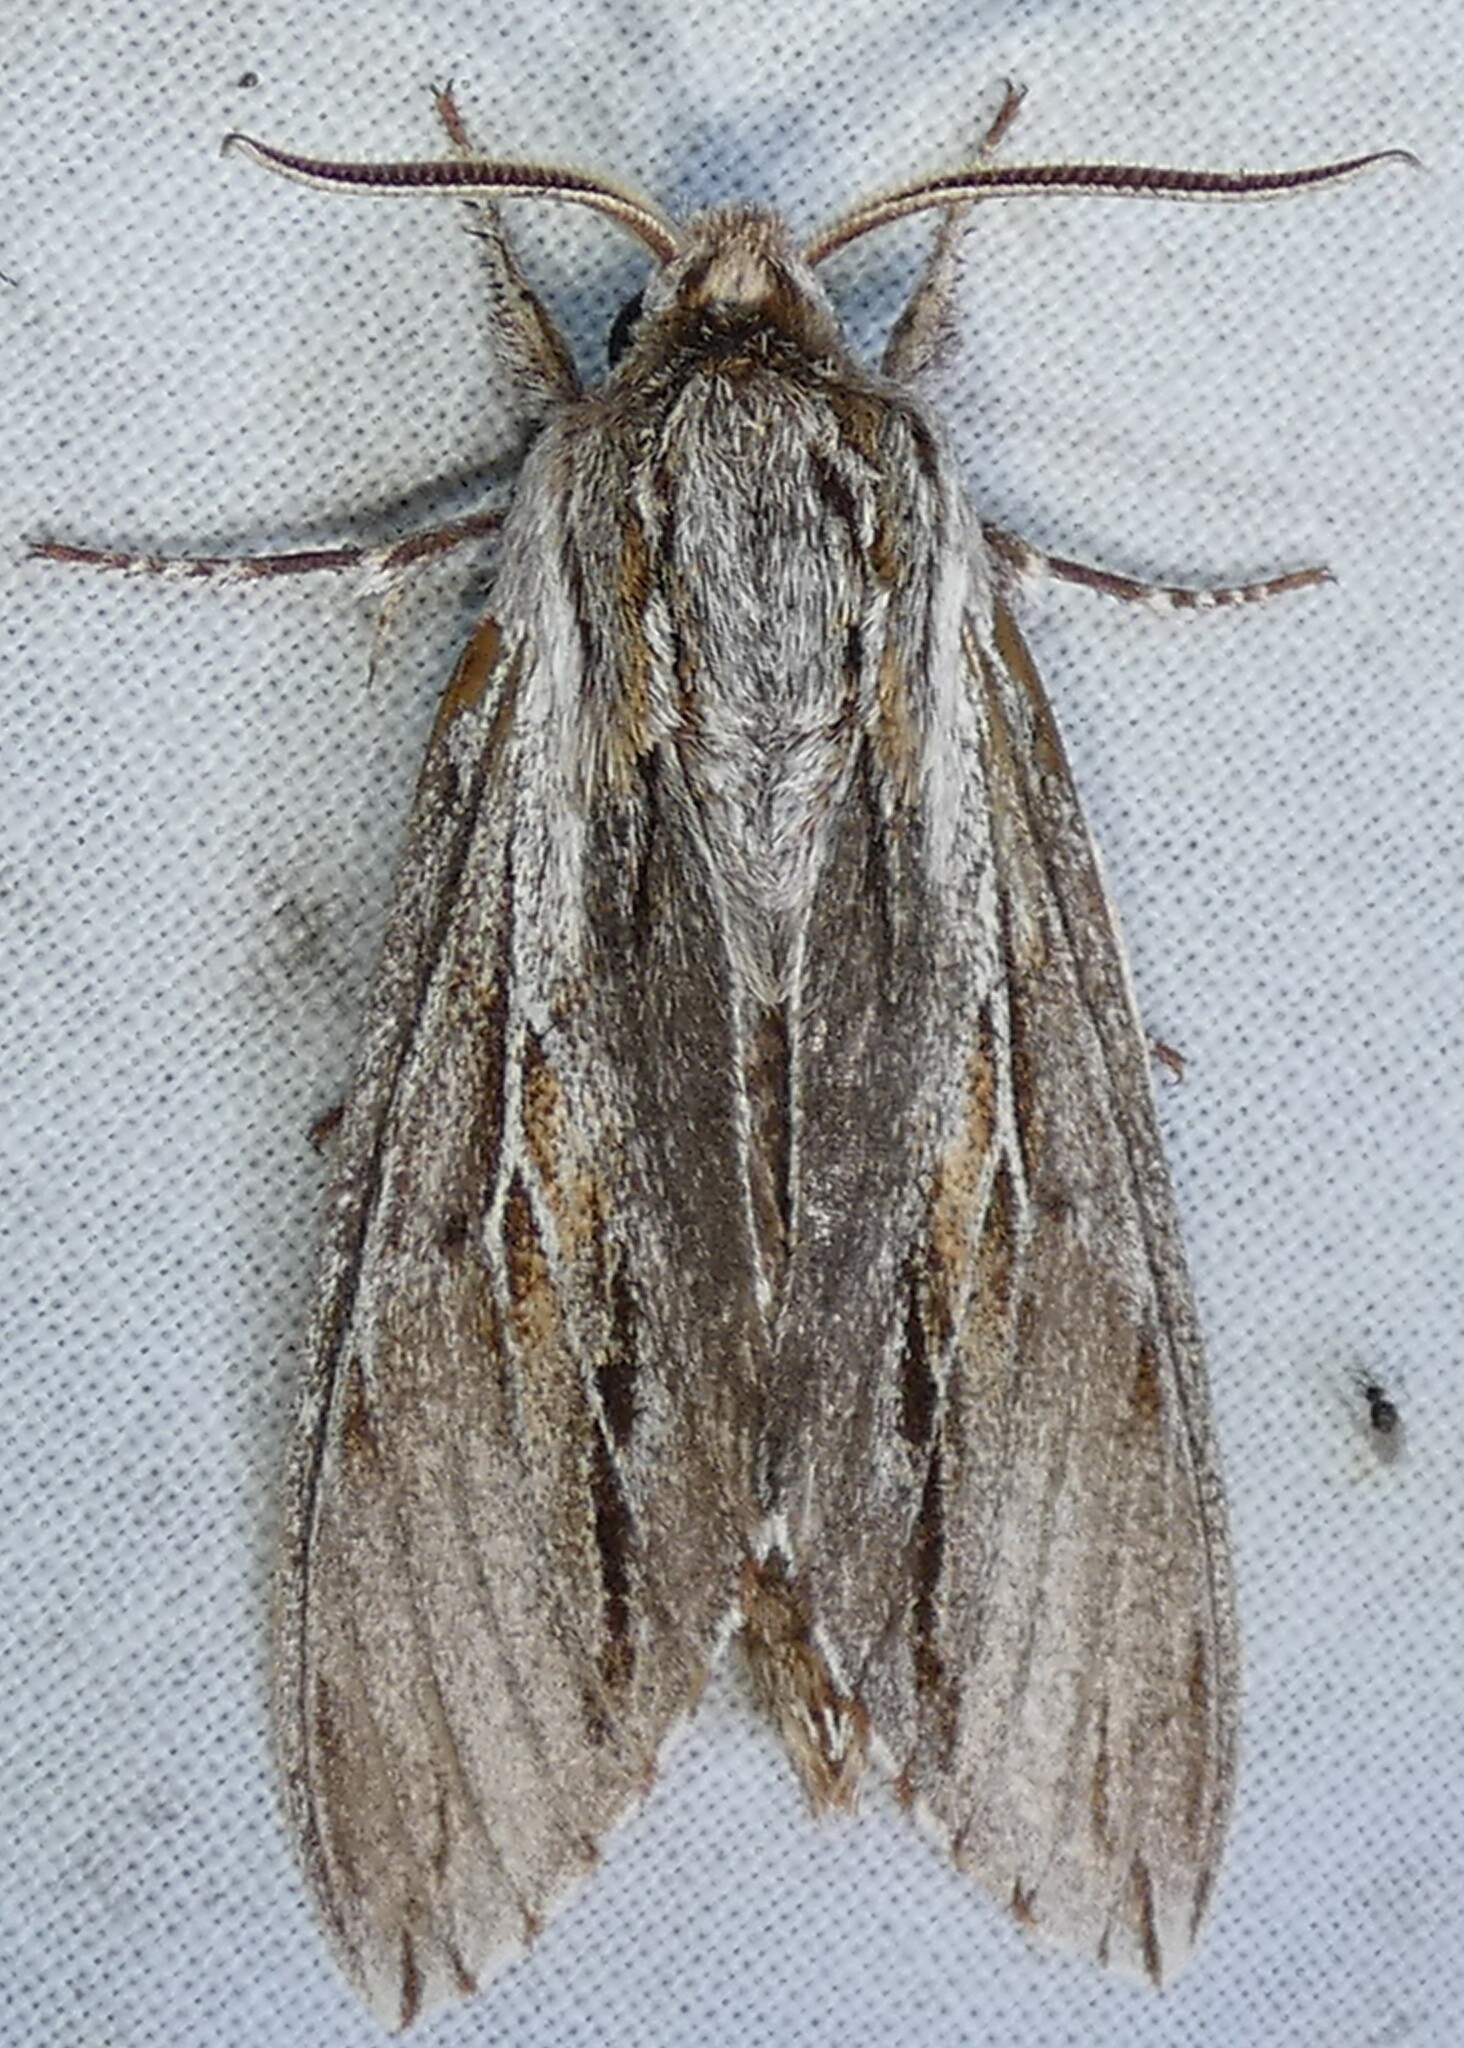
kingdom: Animalia
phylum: Arthropoda
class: Insecta
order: Lepidoptera
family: Sphingidae
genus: Isoparce
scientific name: Isoparce cupressi
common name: Cypress sphinx
